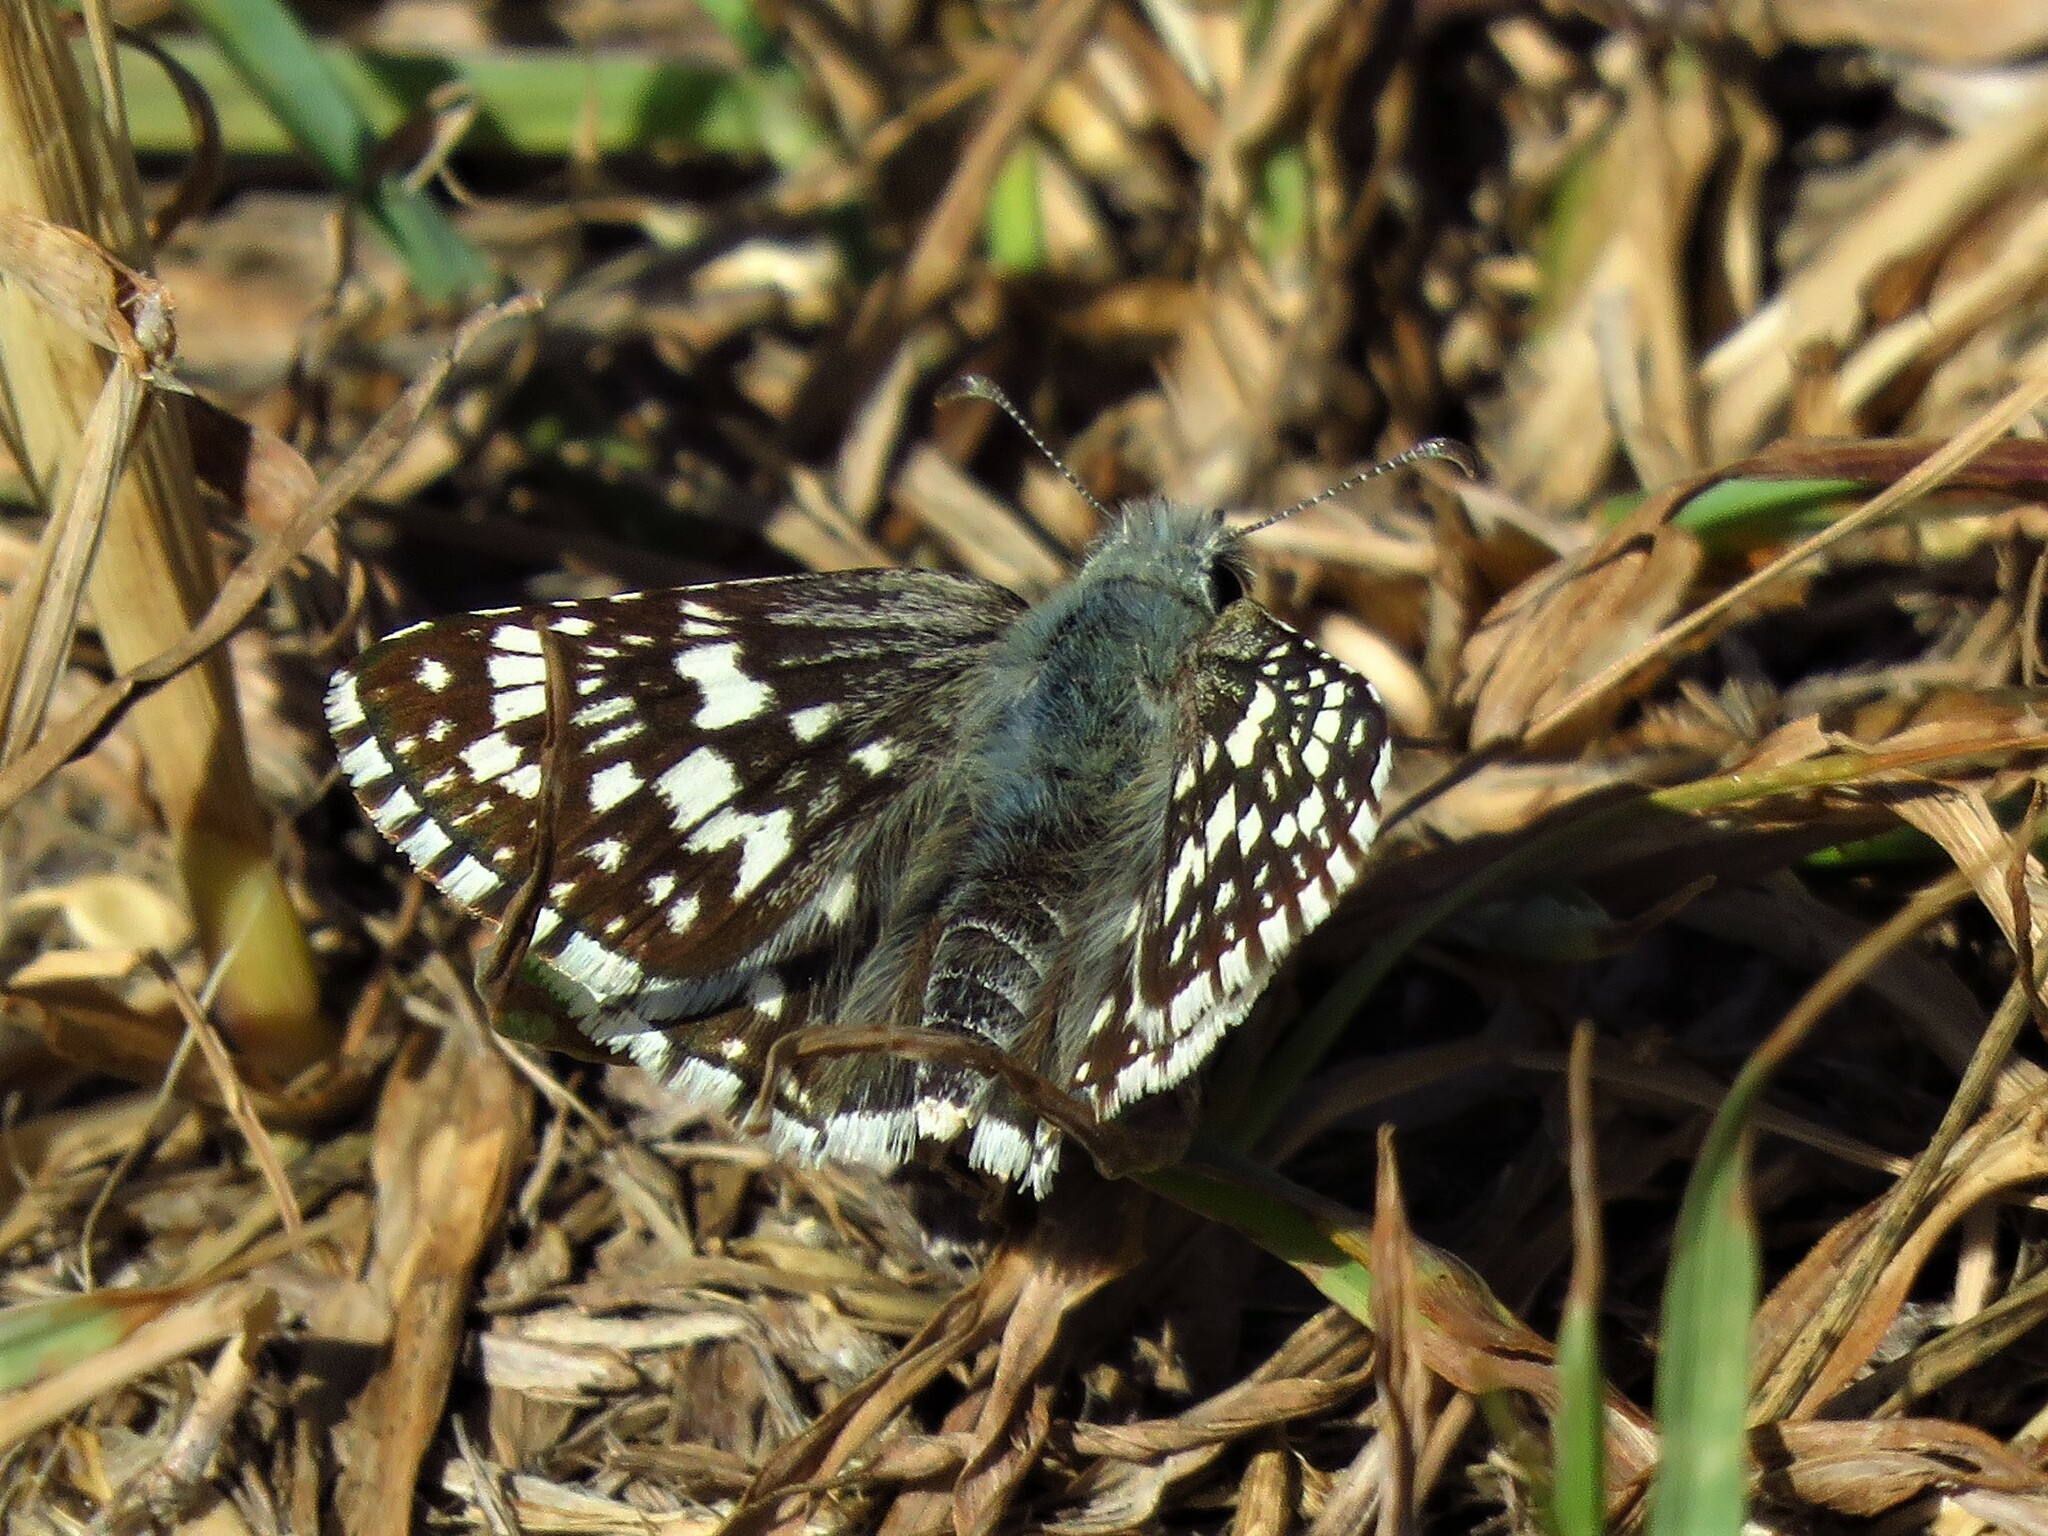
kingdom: Animalia
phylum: Arthropoda
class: Insecta
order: Lepidoptera
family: Hesperiidae
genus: Burnsius
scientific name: Burnsius
